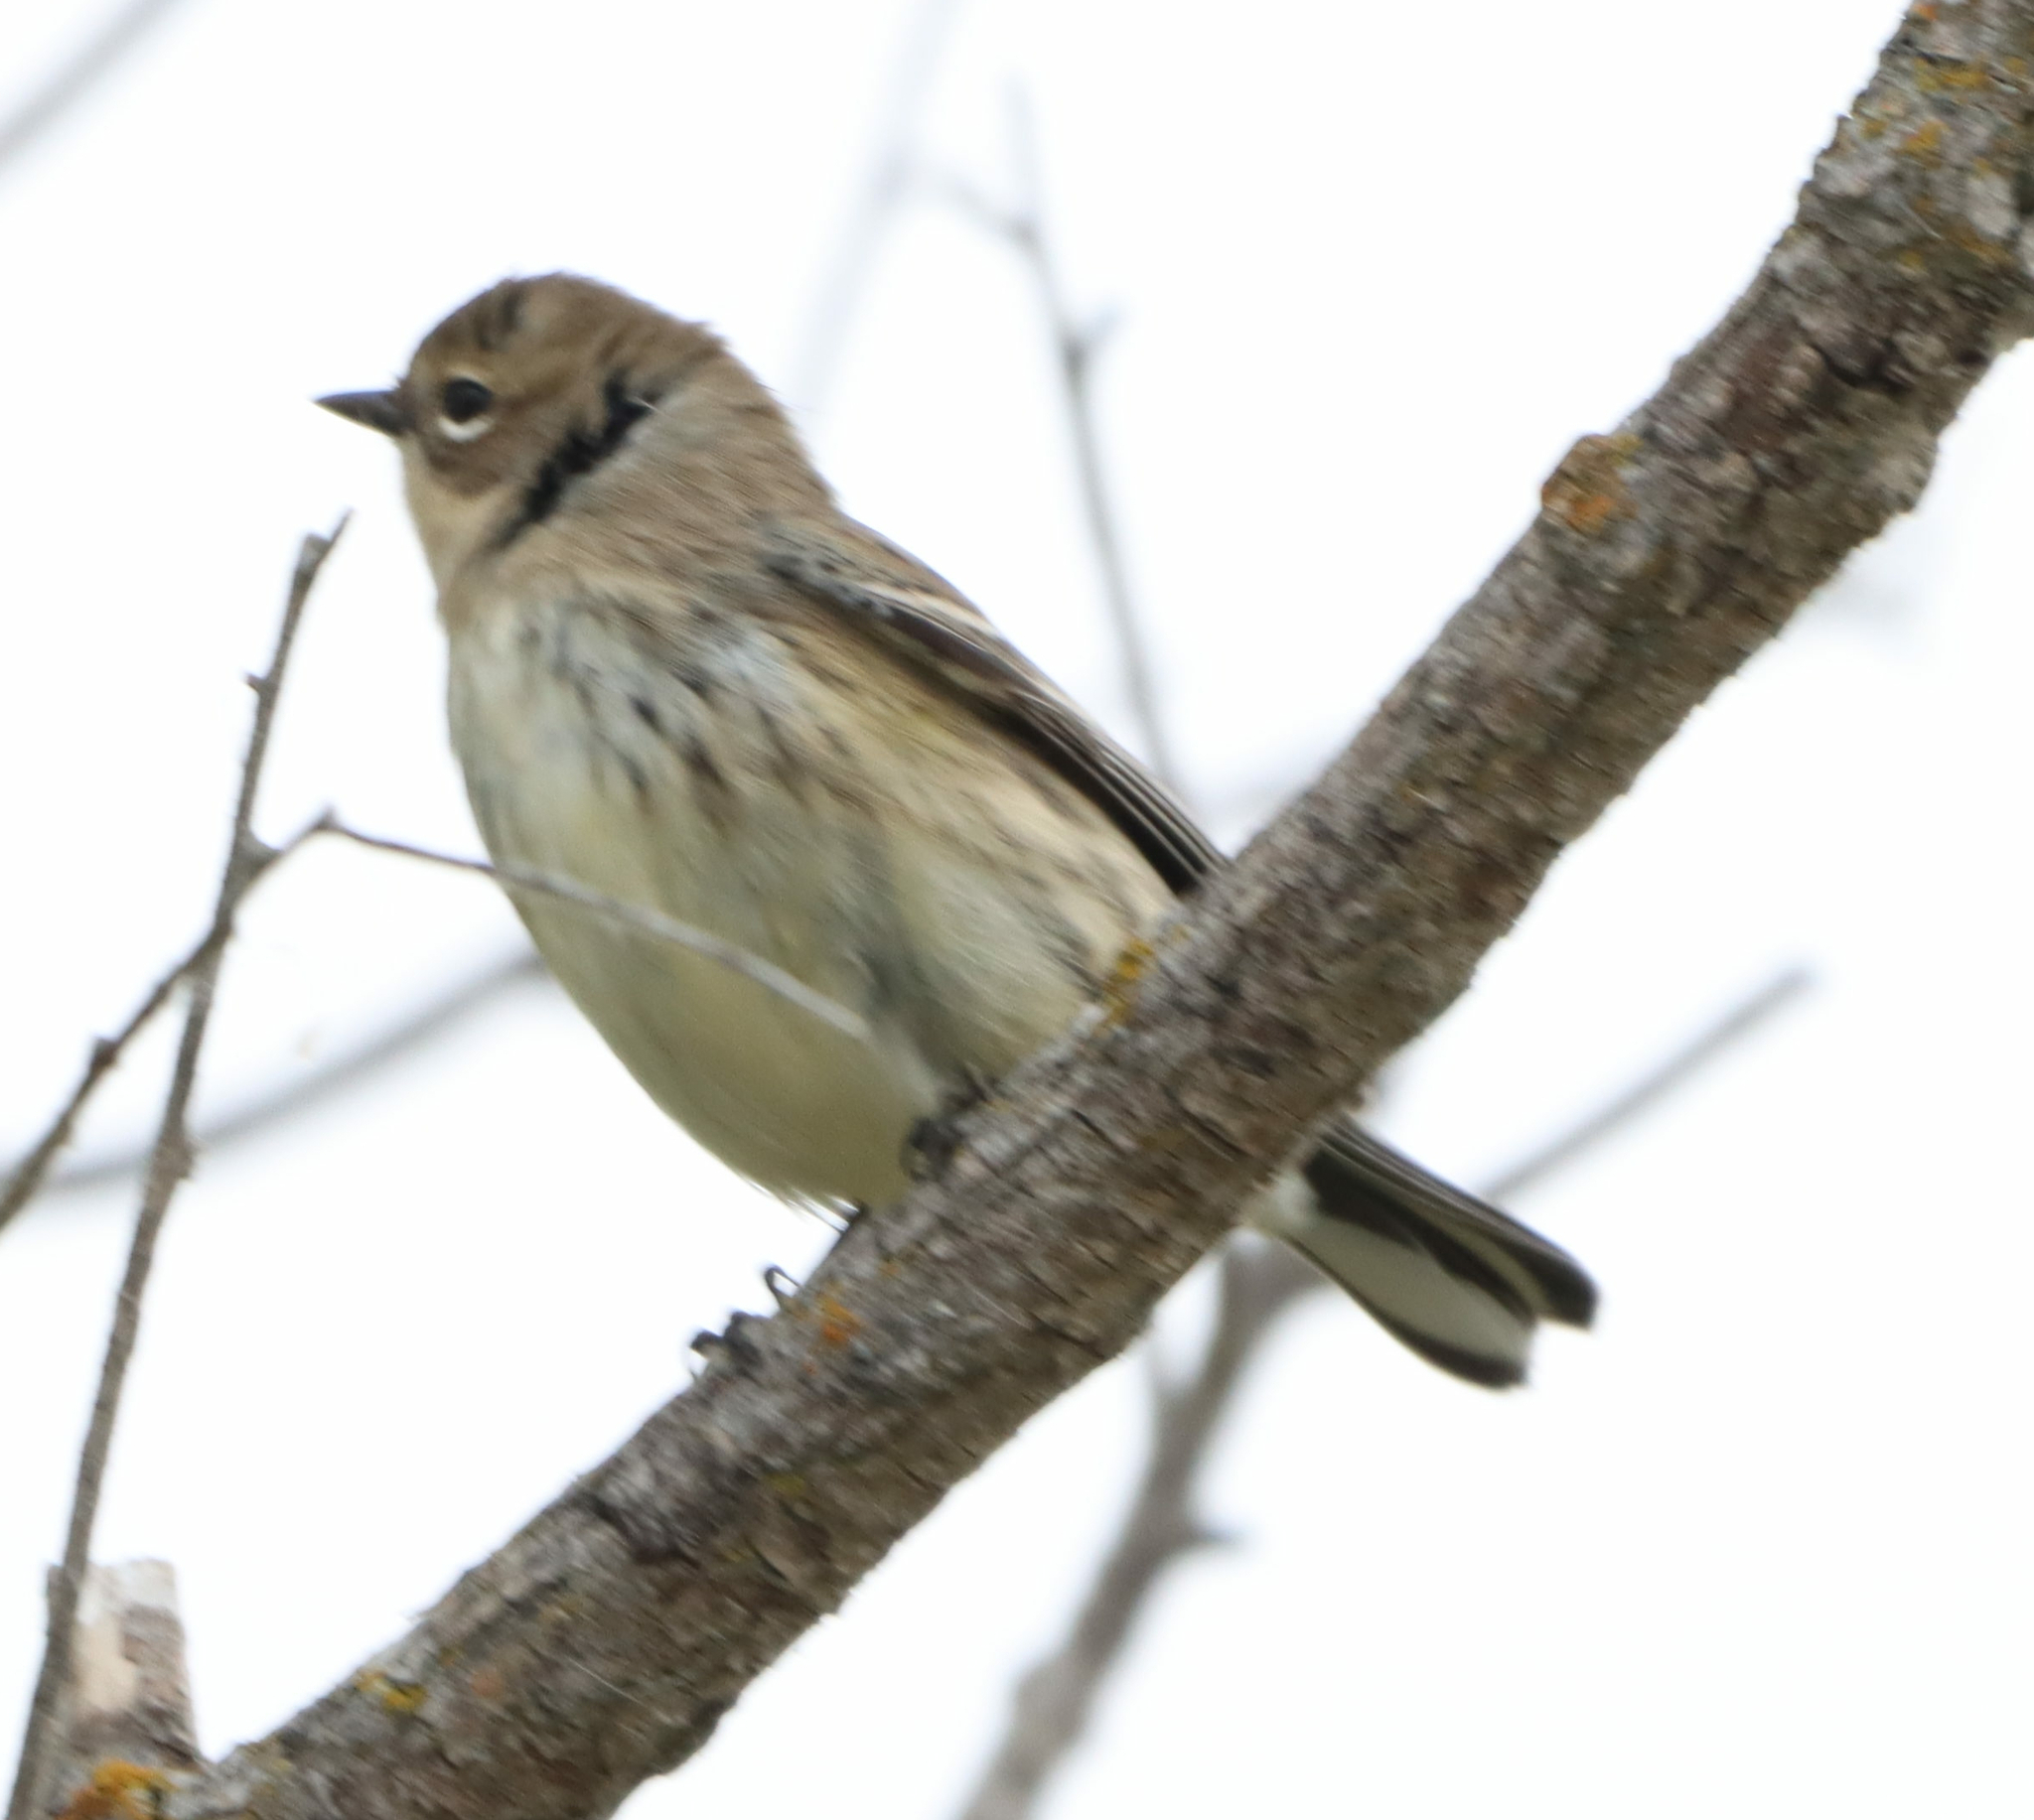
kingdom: Animalia
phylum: Chordata
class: Aves
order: Passeriformes
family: Parulidae
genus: Setophaga
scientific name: Setophaga coronata
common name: Myrtle warbler
